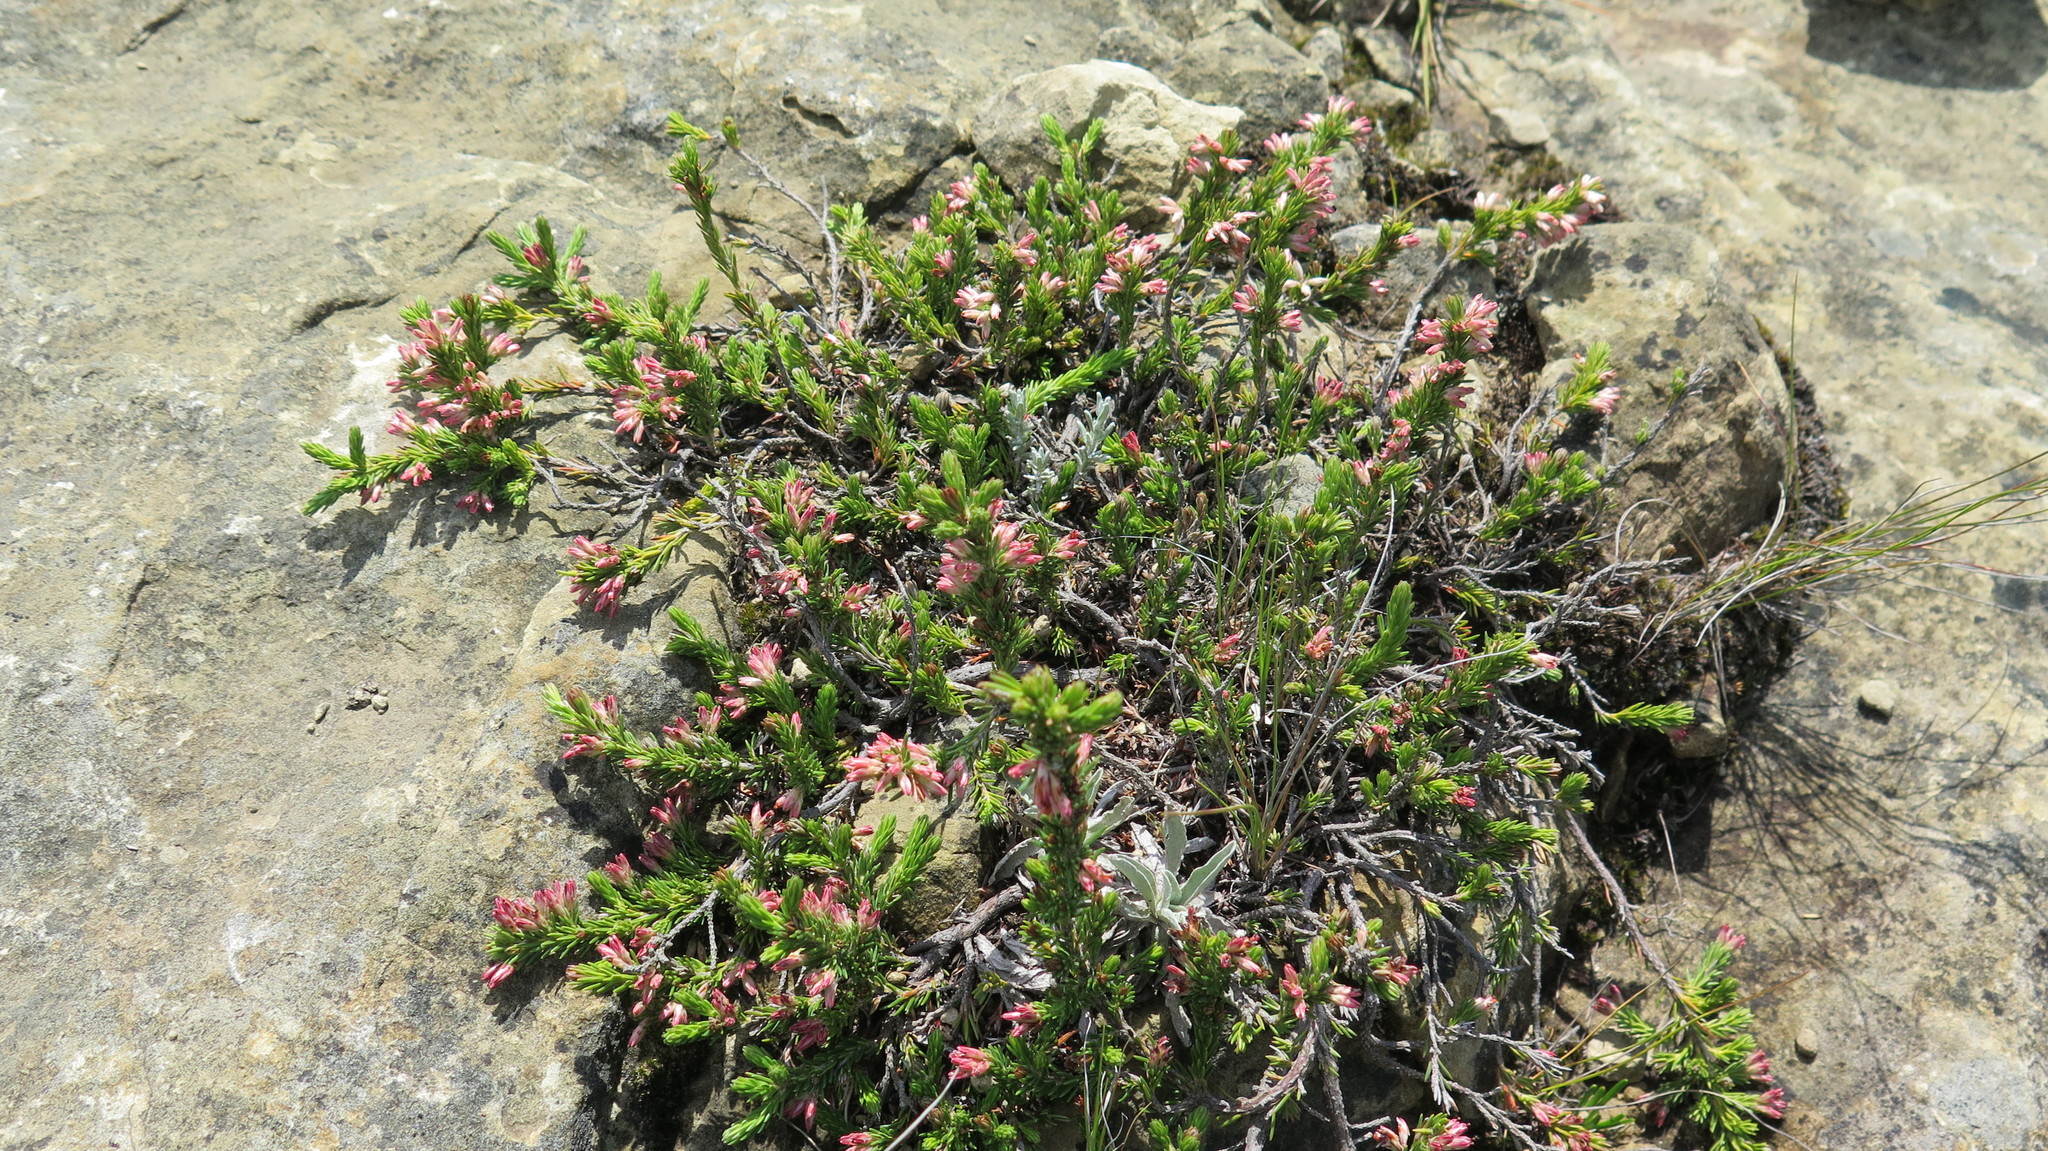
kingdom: Plantae
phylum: Tracheophyta
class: Magnoliopsida
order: Ericales
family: Ericaceae
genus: Erica
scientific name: Erica caffrorum
